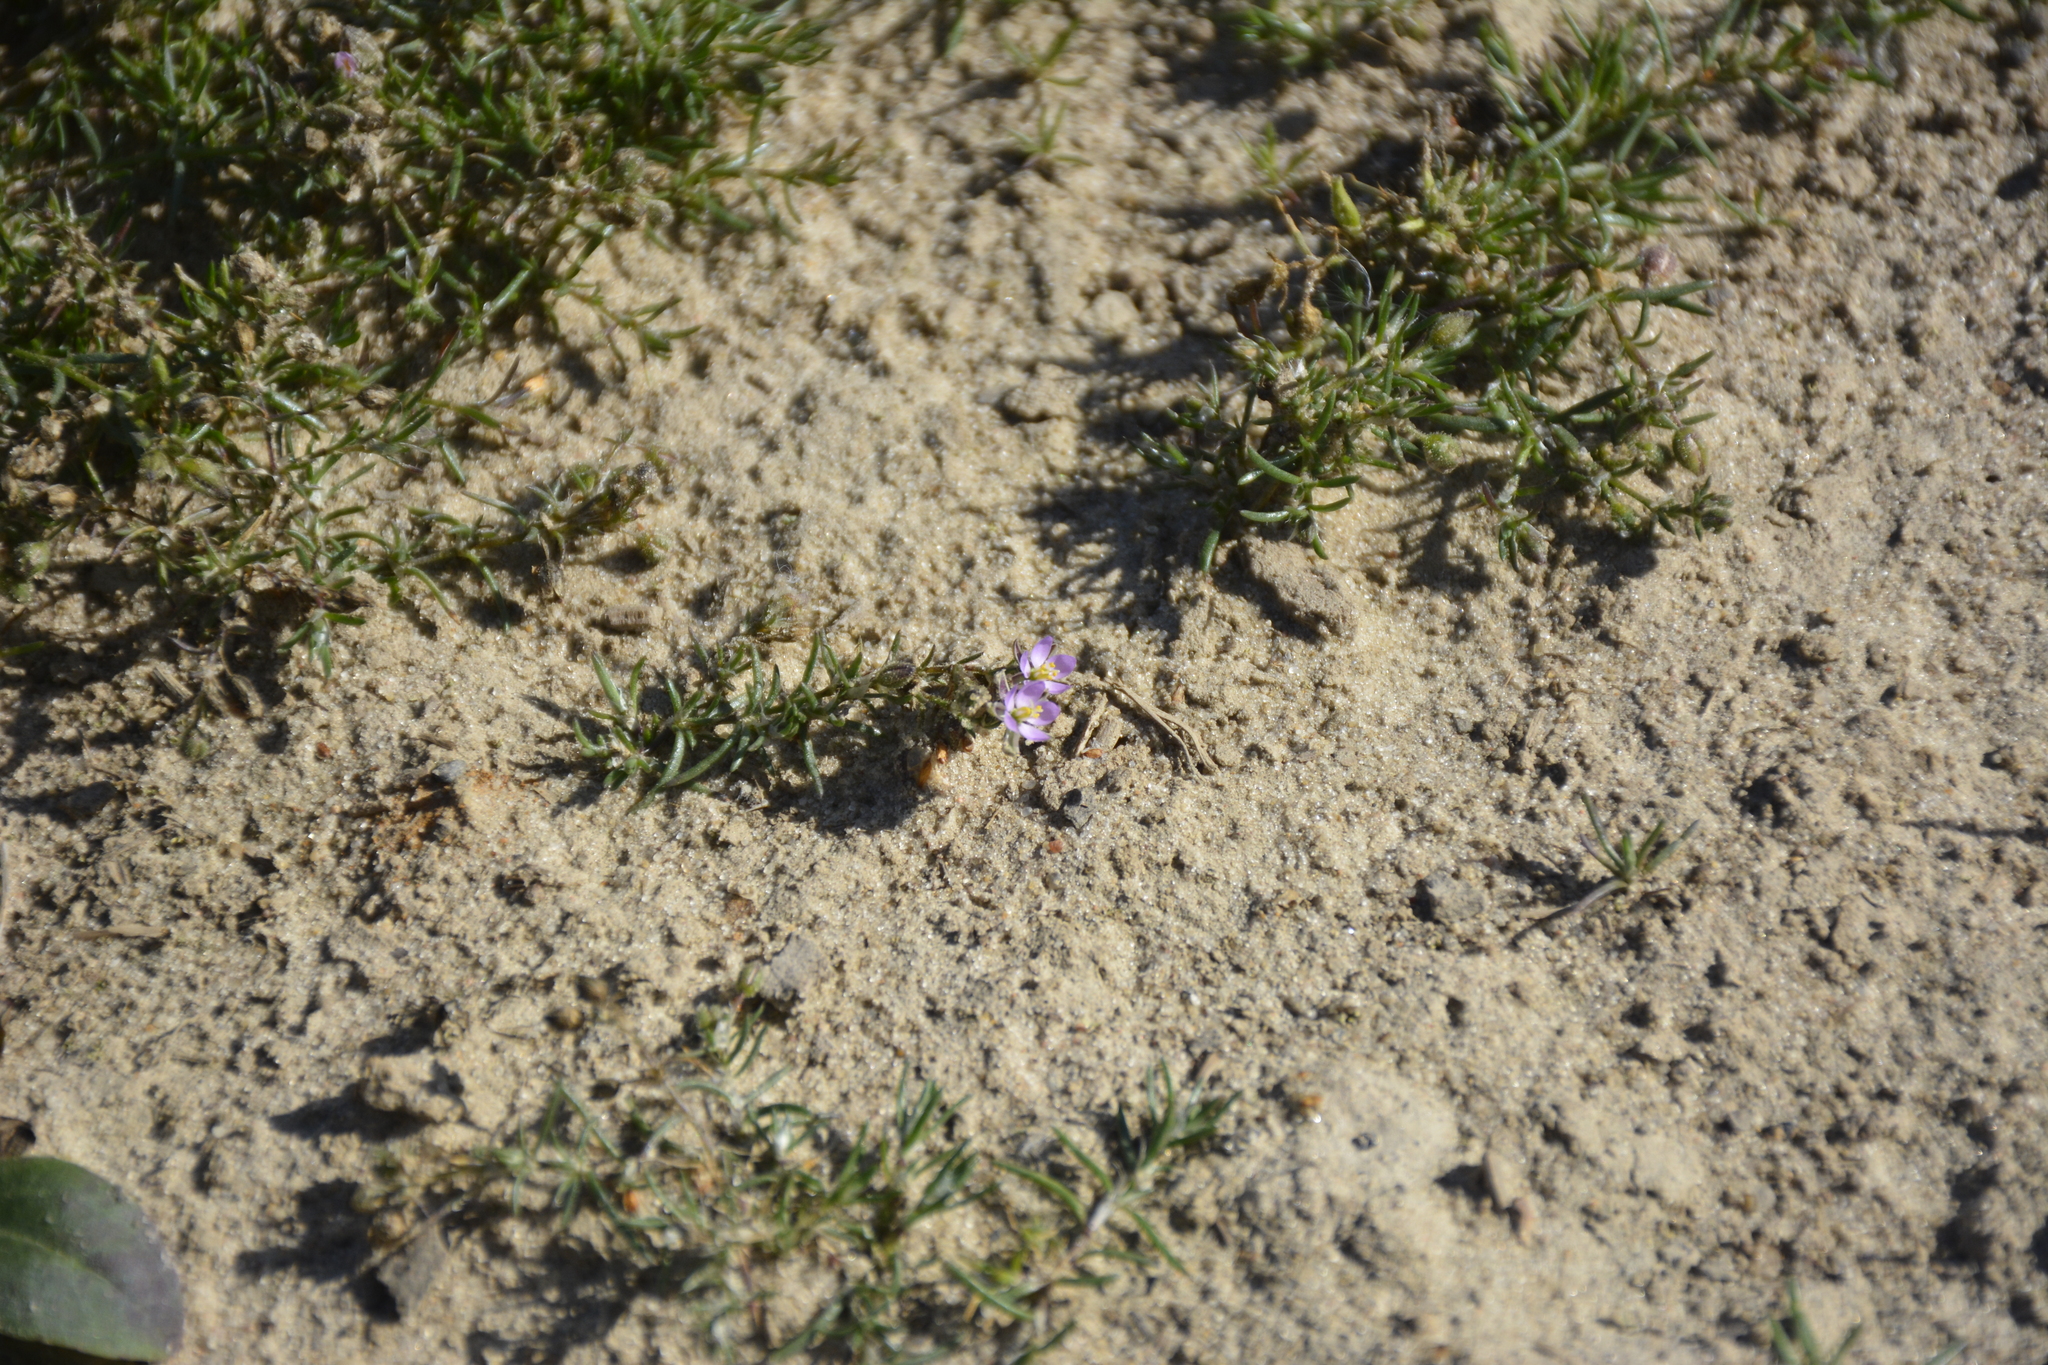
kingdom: Plantae
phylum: Tracheophyta
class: Magnoliopsida
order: Caryophyllales
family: Caryophyllaceae
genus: Spergularia
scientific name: Spergularia rubra
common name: Red sand-spurrey
